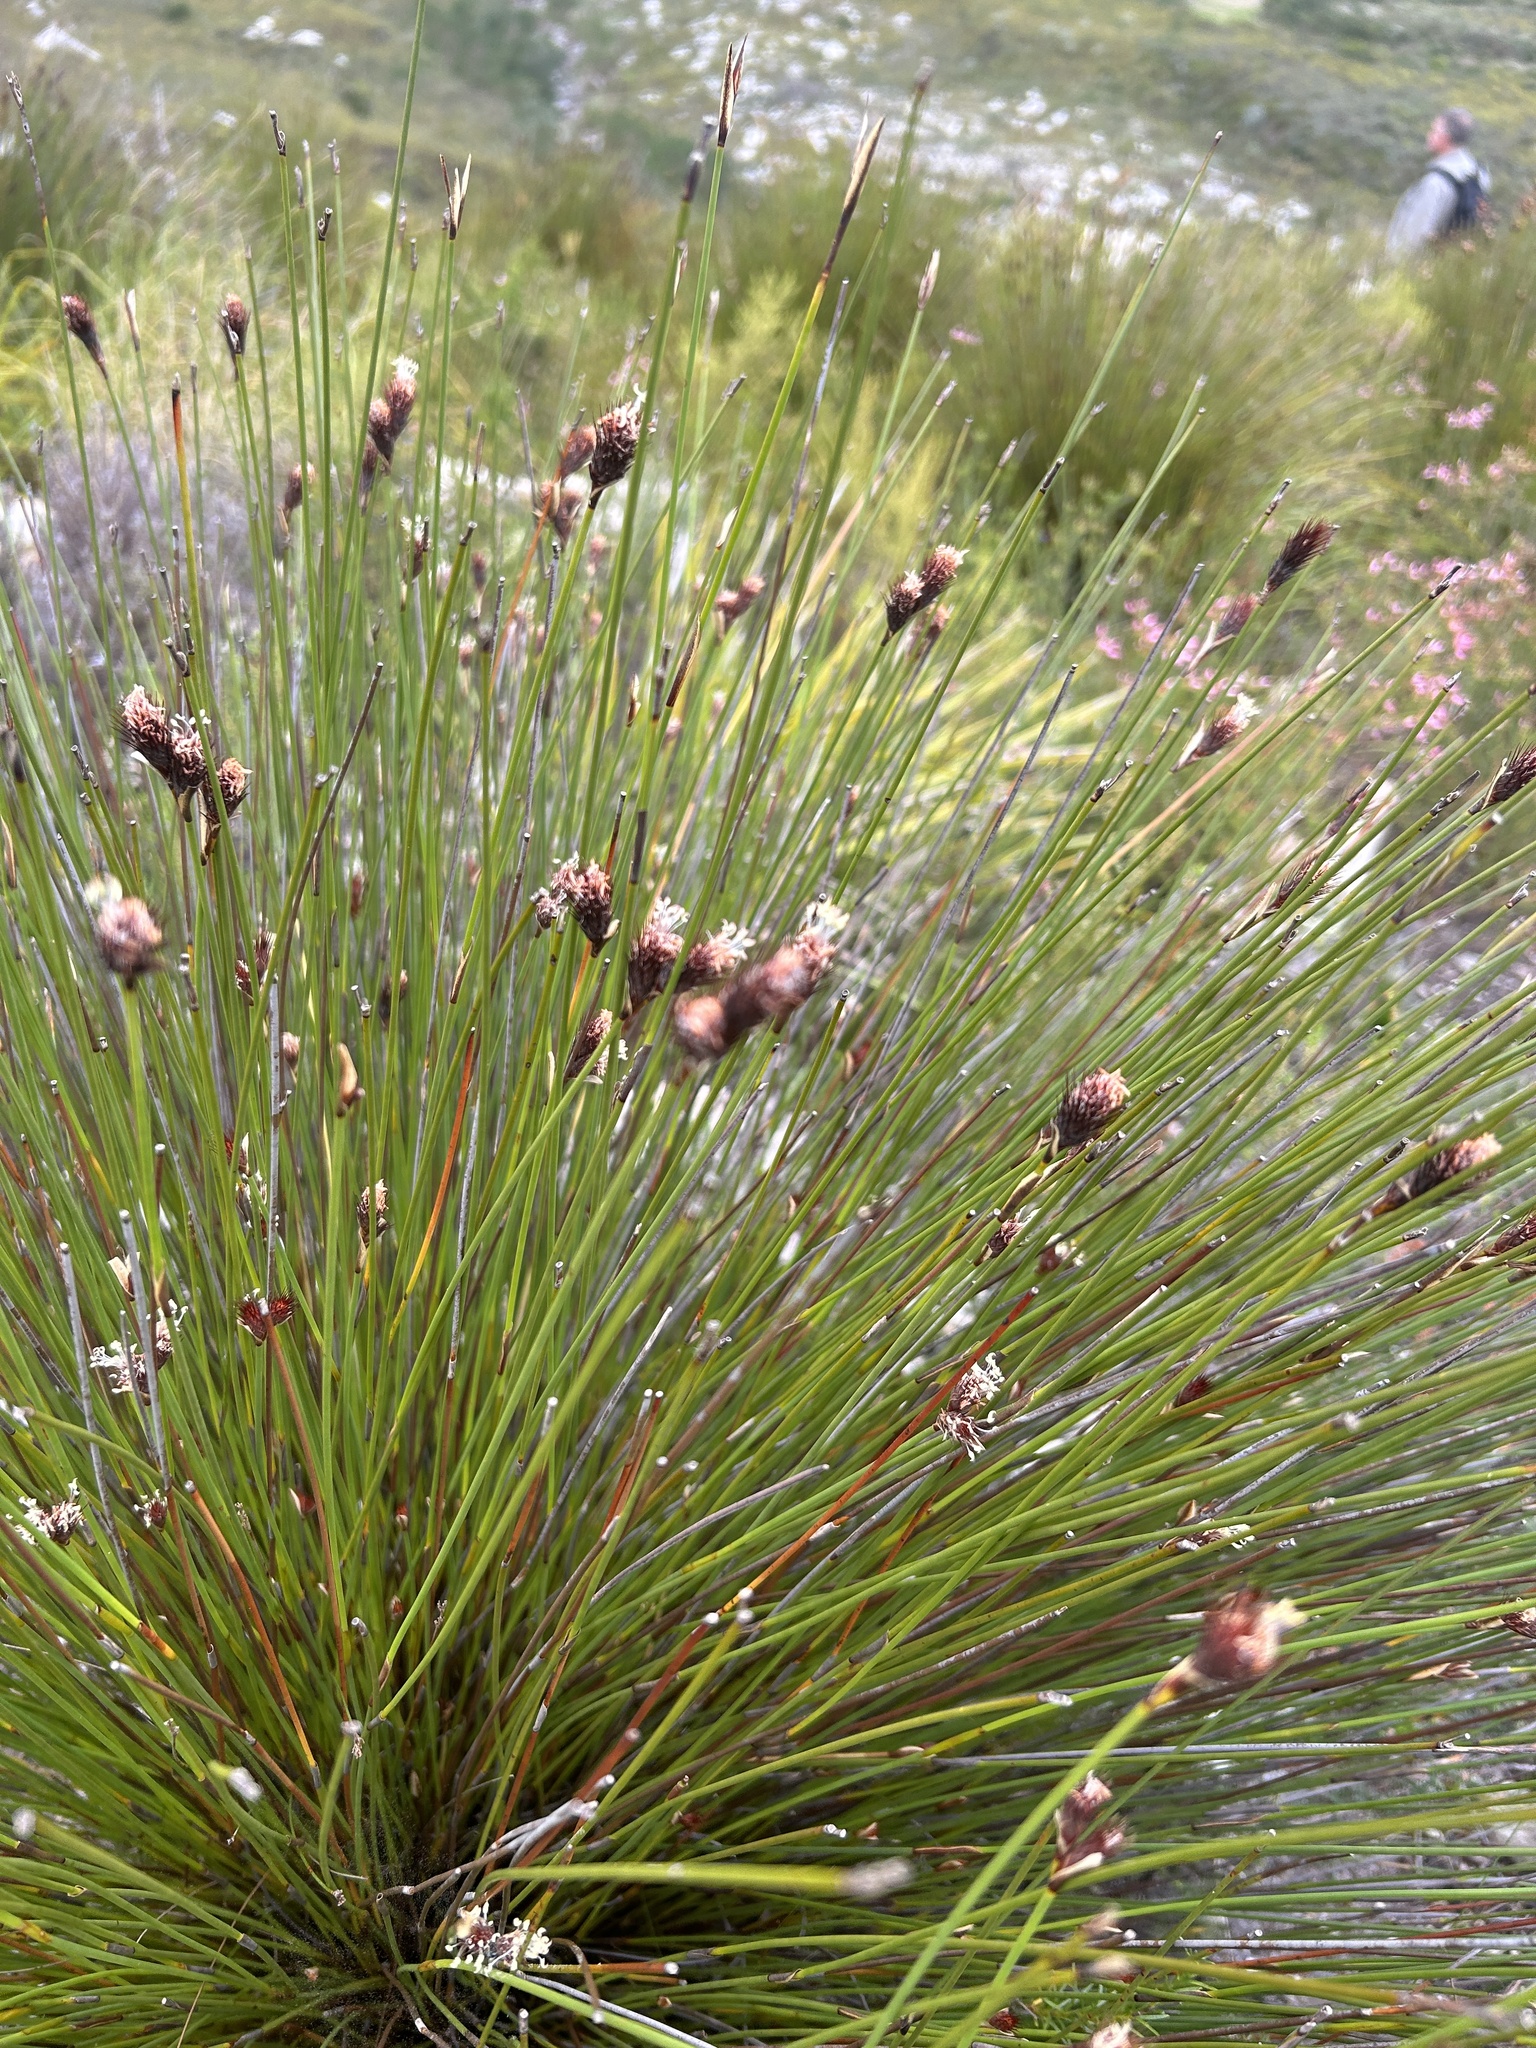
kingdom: Plantae
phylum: Tracheophyta
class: Liliopsida
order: Poales
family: Restionaceae
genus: Hypodiscus
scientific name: Hypodiscus aristatus
